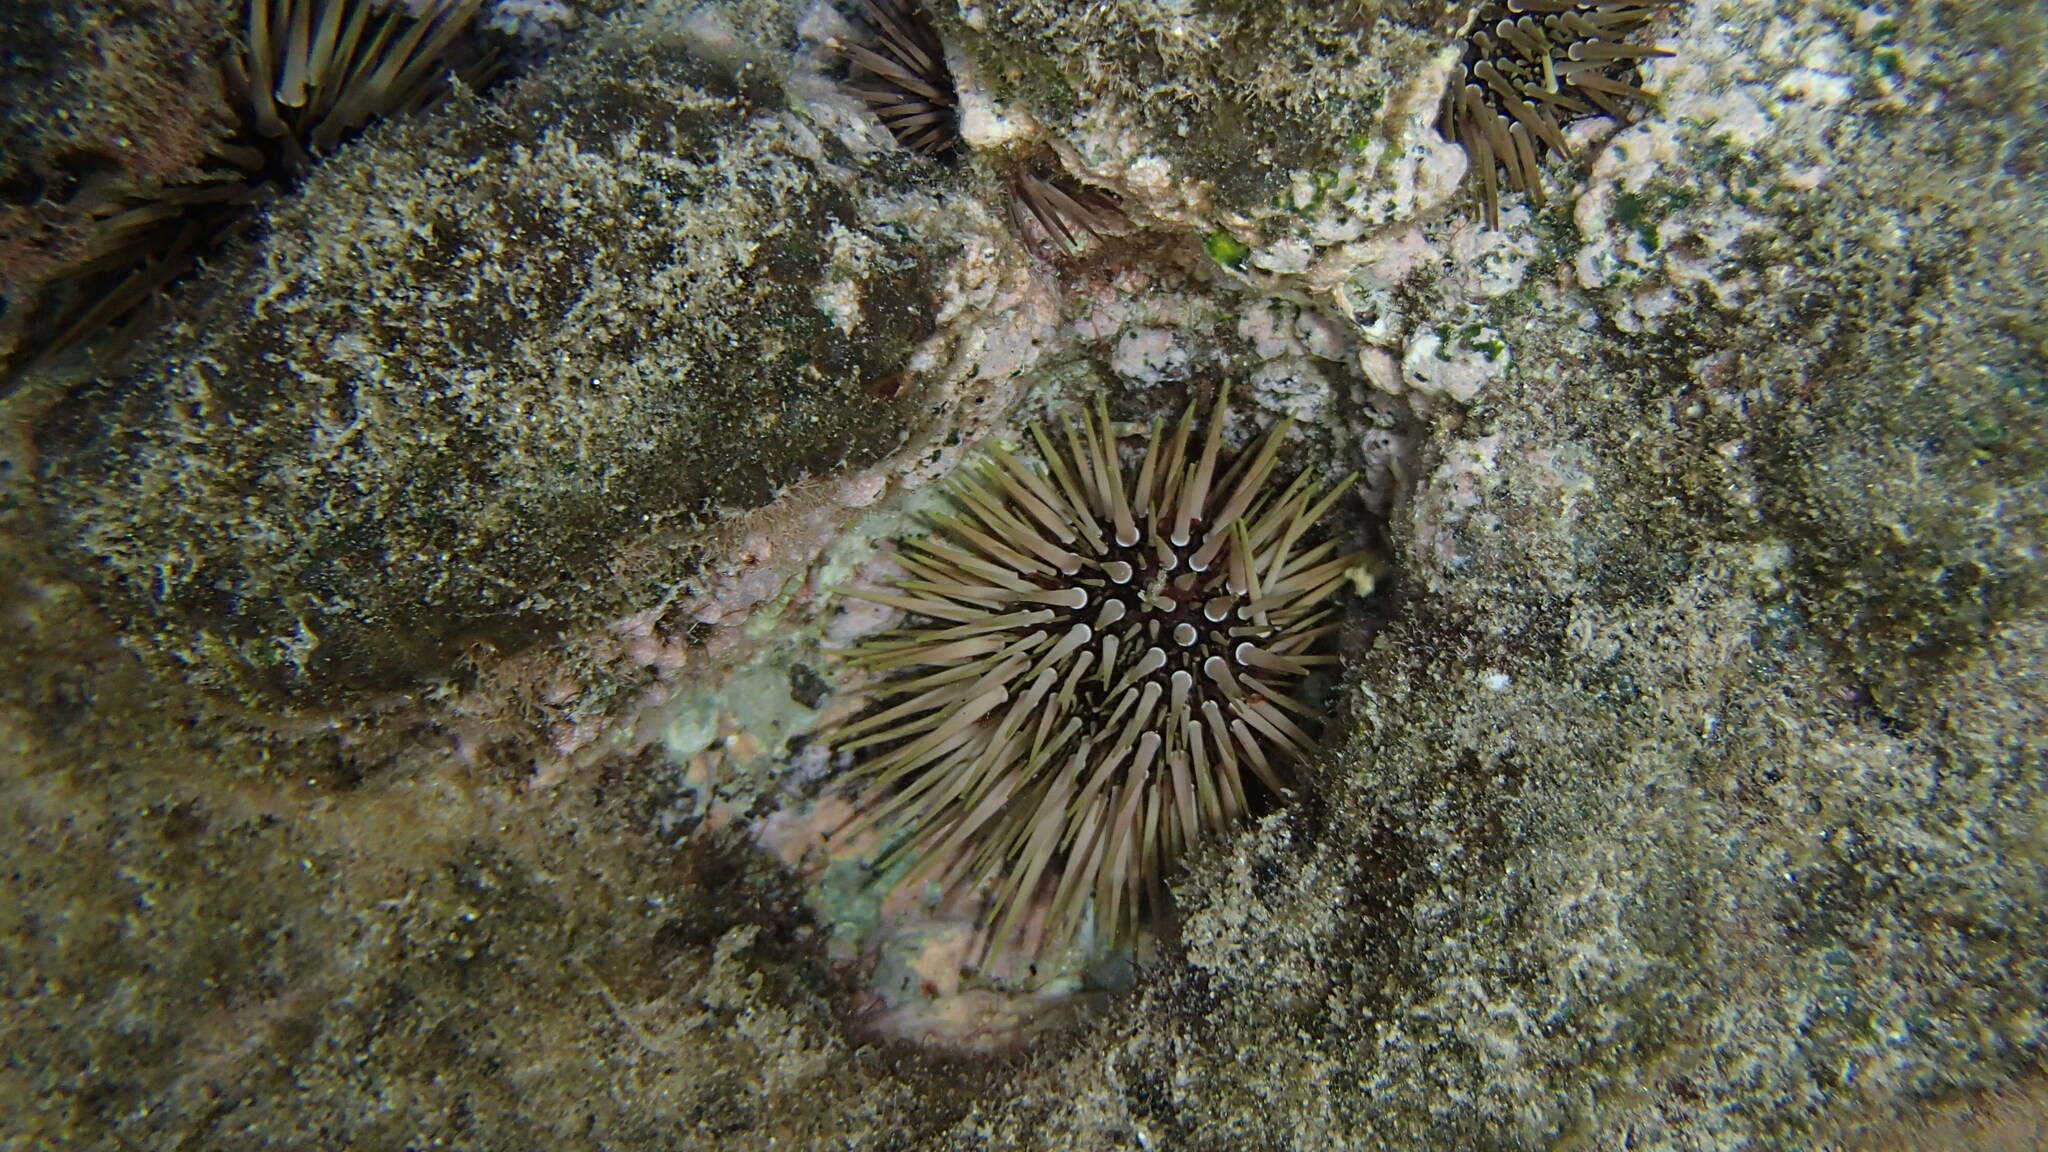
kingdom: Animalia
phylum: Echinodermata
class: Echinoidea
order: Camarodonta
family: Echinometridae
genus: Echinometra
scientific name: Echinometra mathaei
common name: Rock-boring urchin
